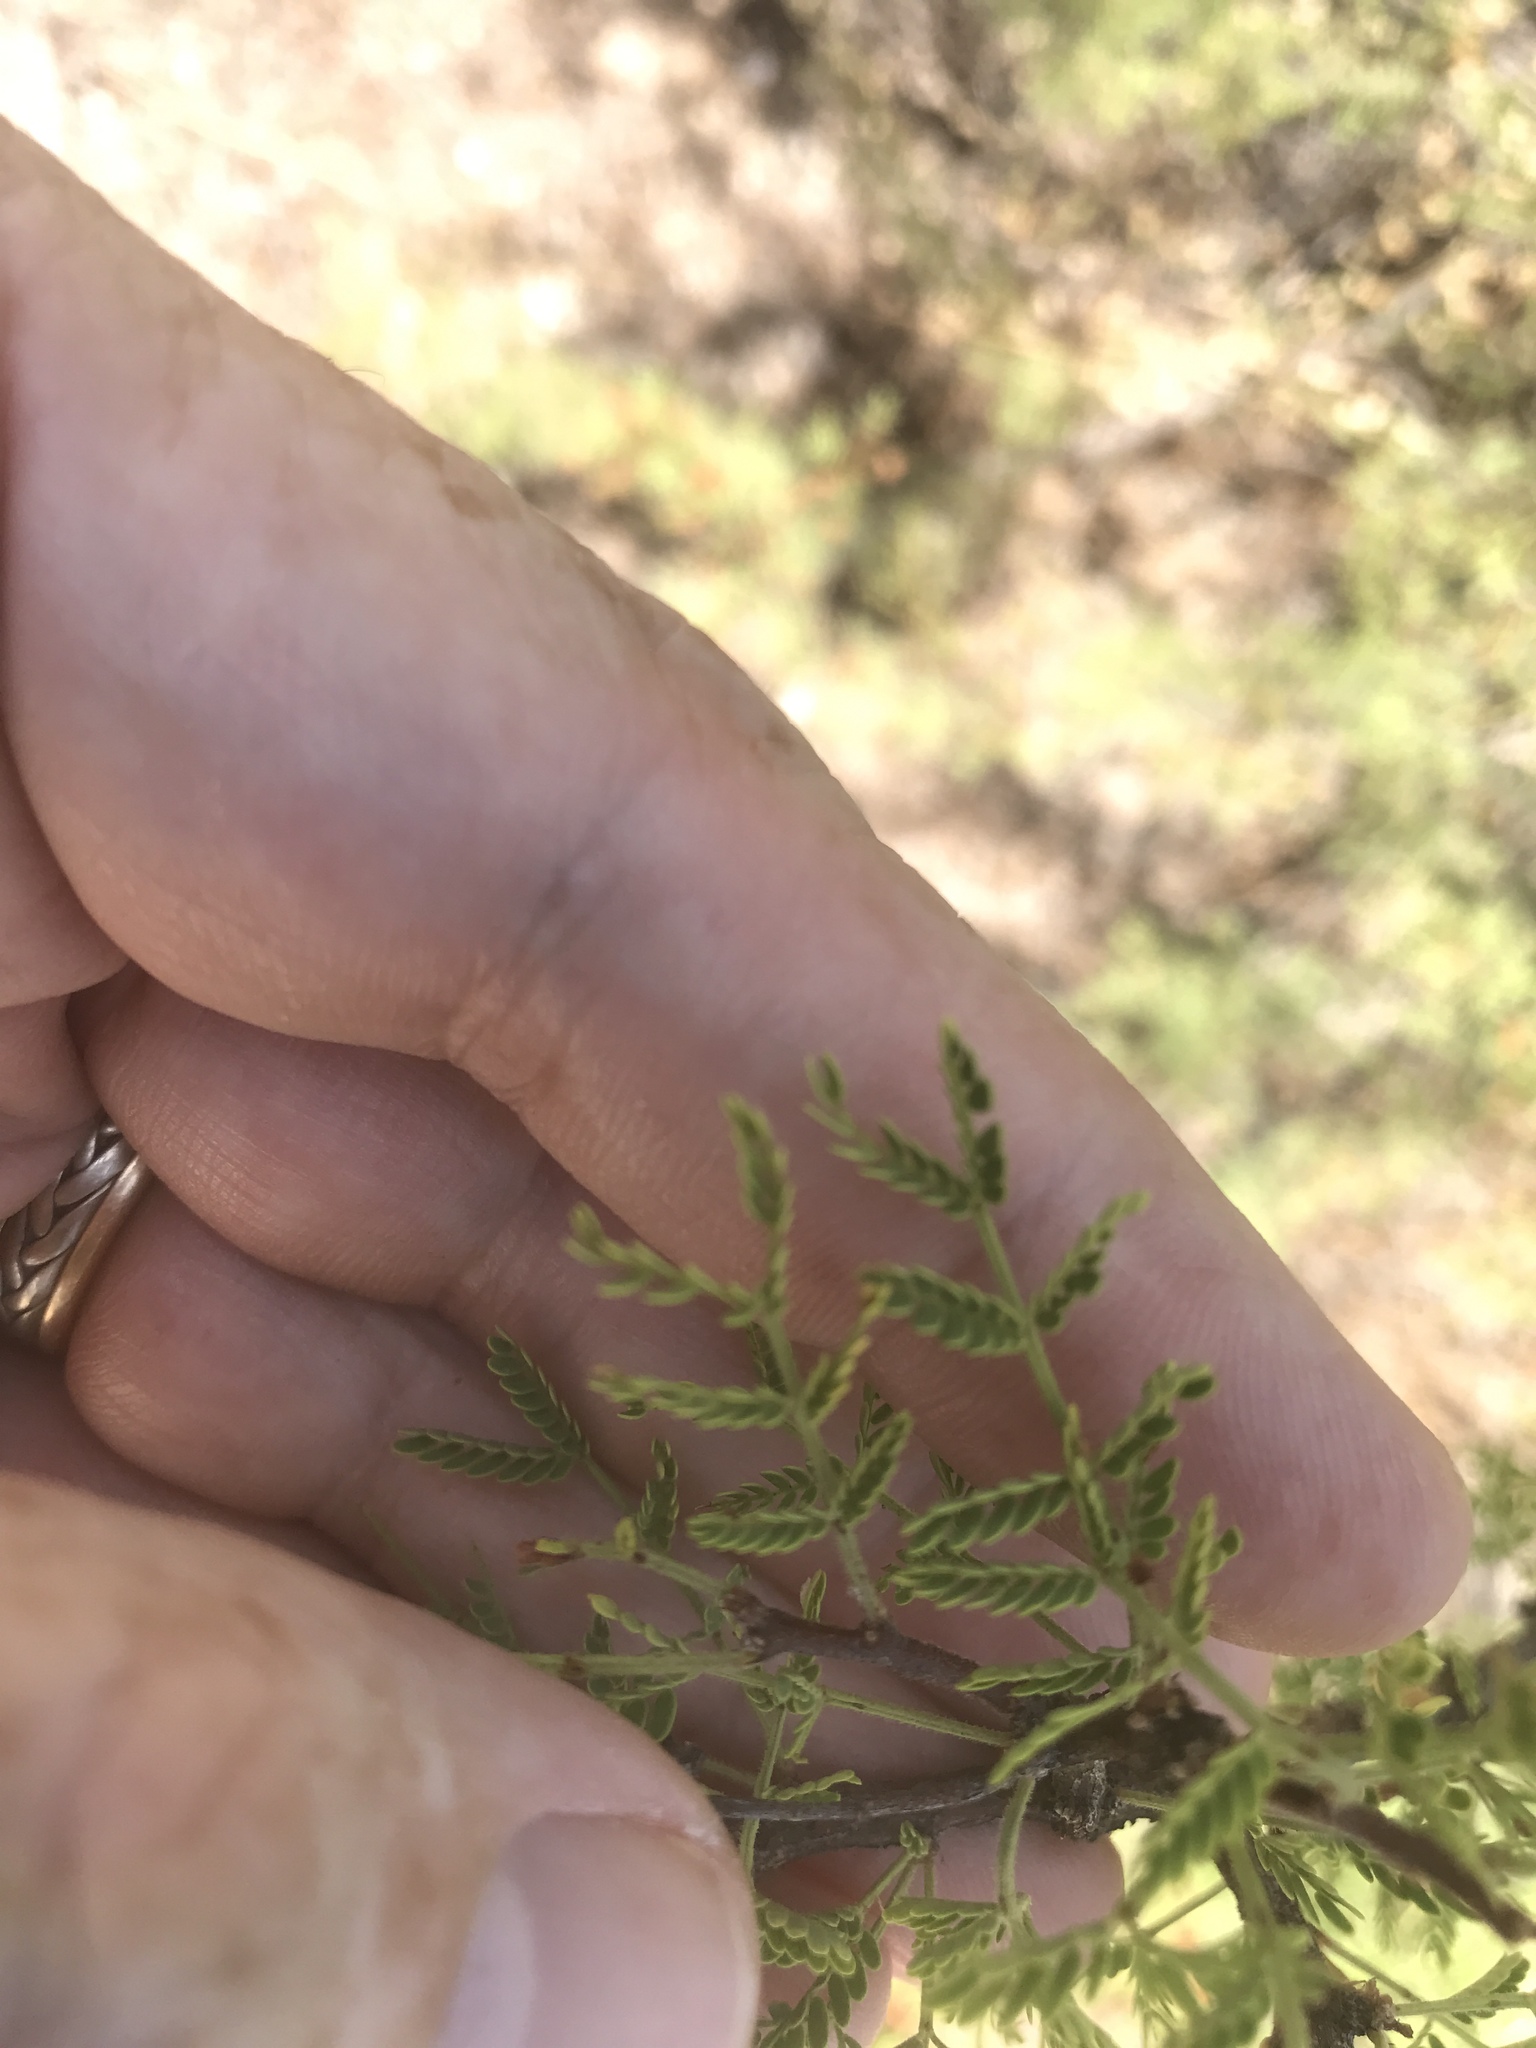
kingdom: Plantae
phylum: Tracheophyta
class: Magnoliopsida
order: Fabales
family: Fabaceae
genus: Vachellia
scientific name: Vachellia constricta
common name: Mescat acacia
